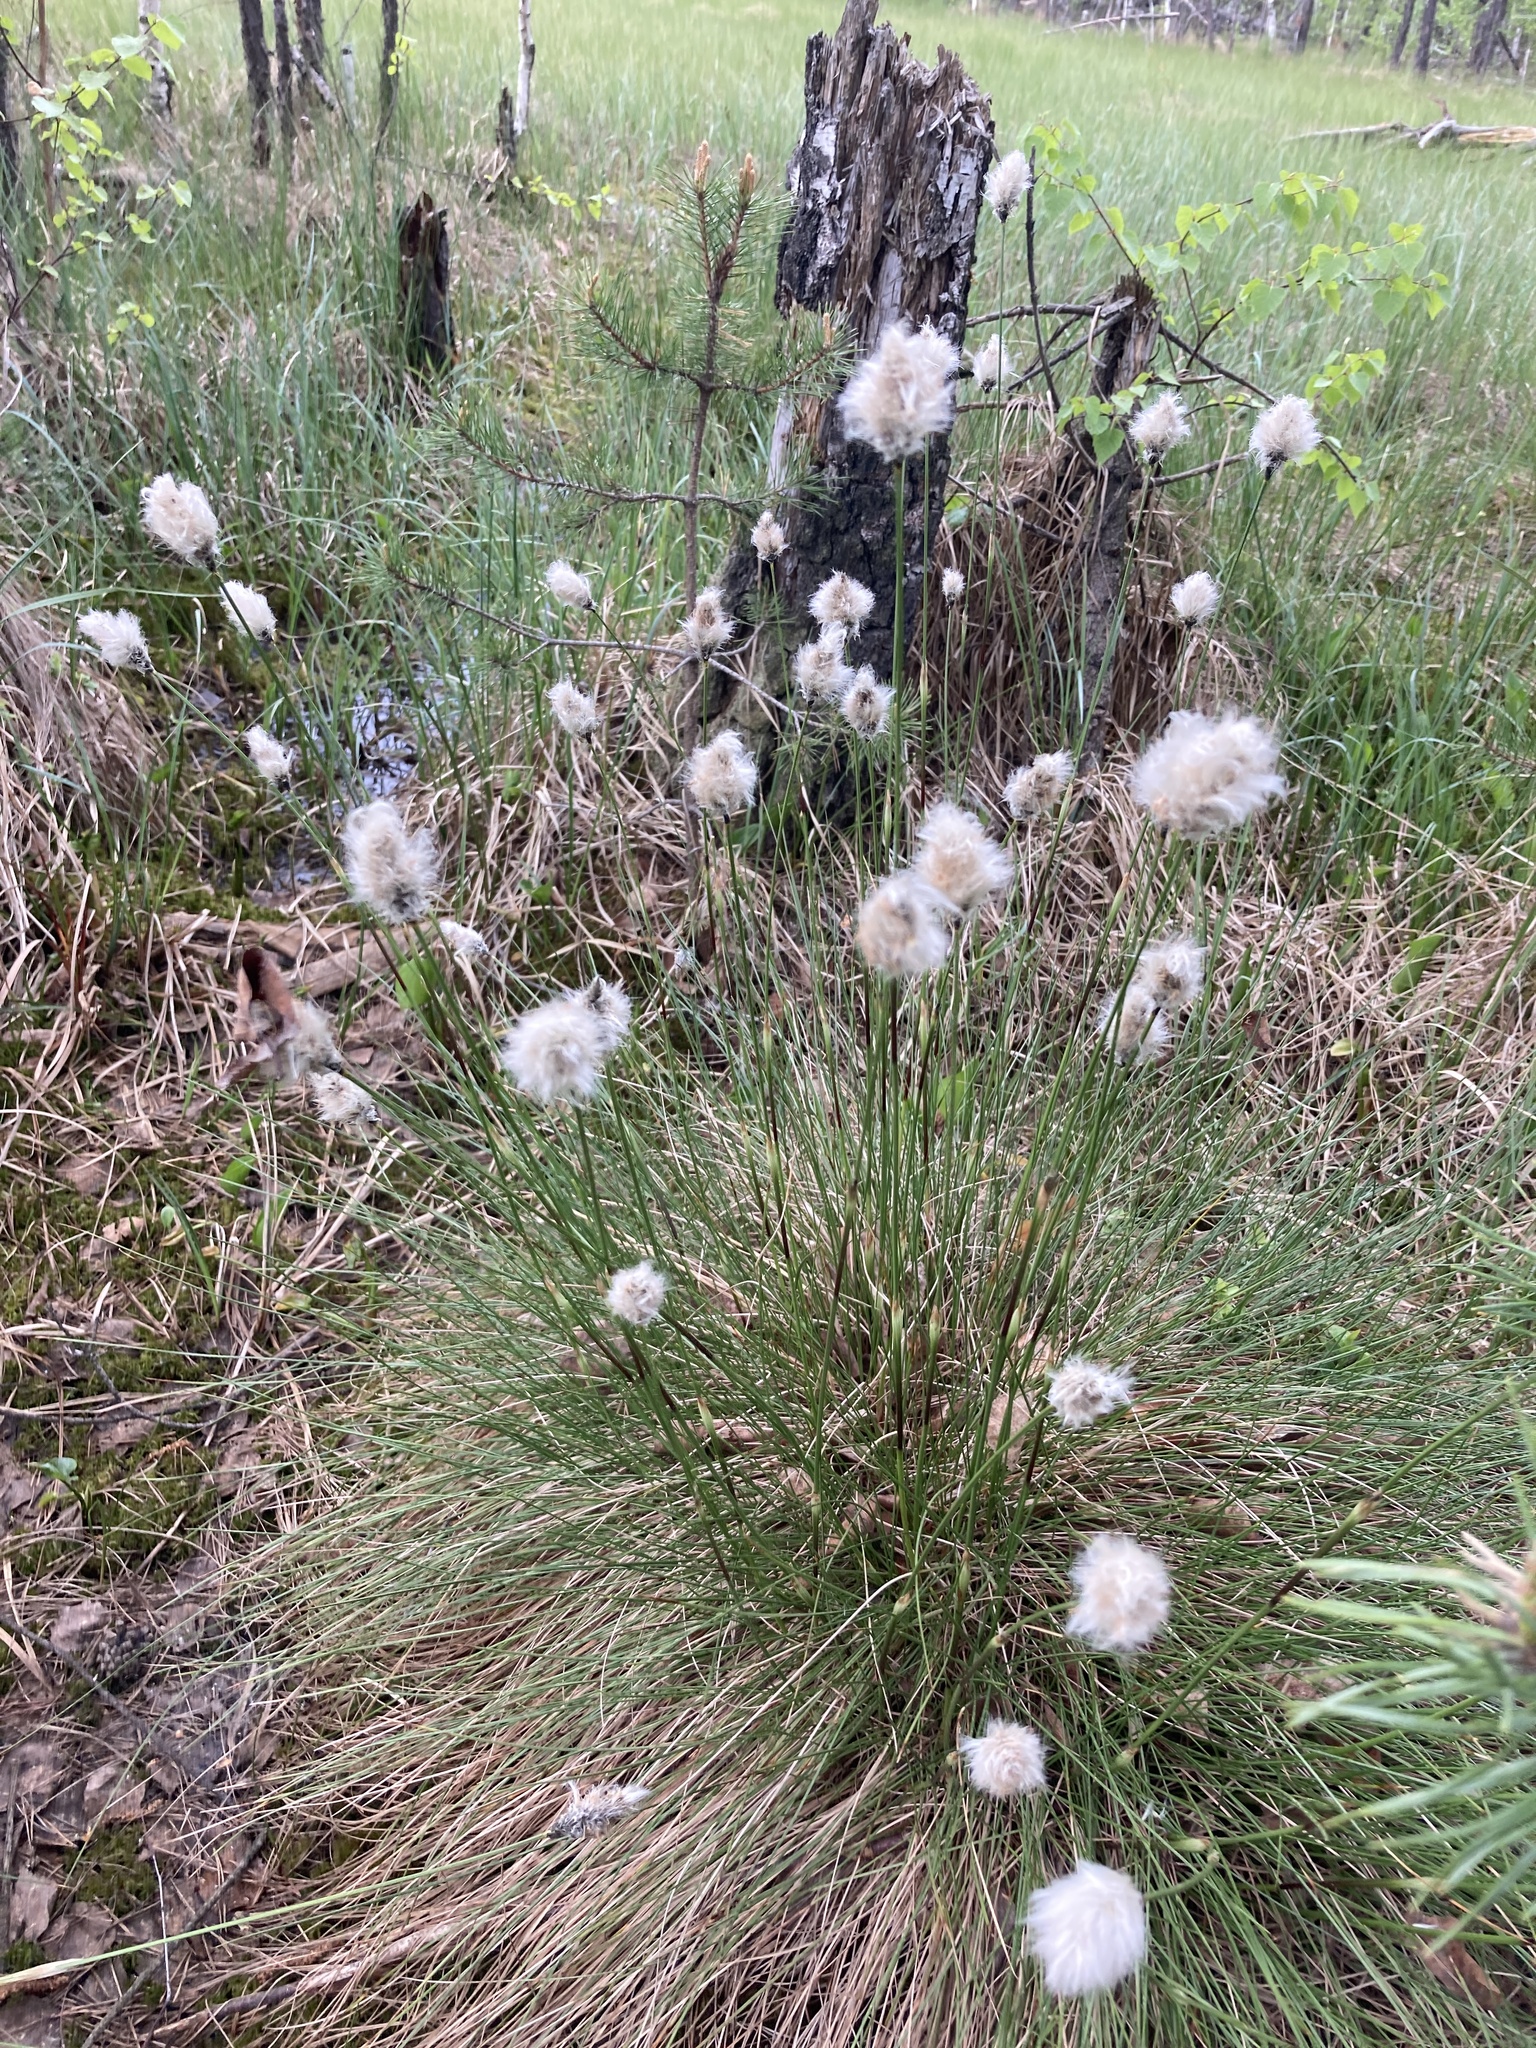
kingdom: Plantae
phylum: Tracheophyta
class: Liliopsida
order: Poales
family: Cyperaceae
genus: Eriophorum
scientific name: Eriophorum vaginatum
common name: Hare's-tail cottongrass
